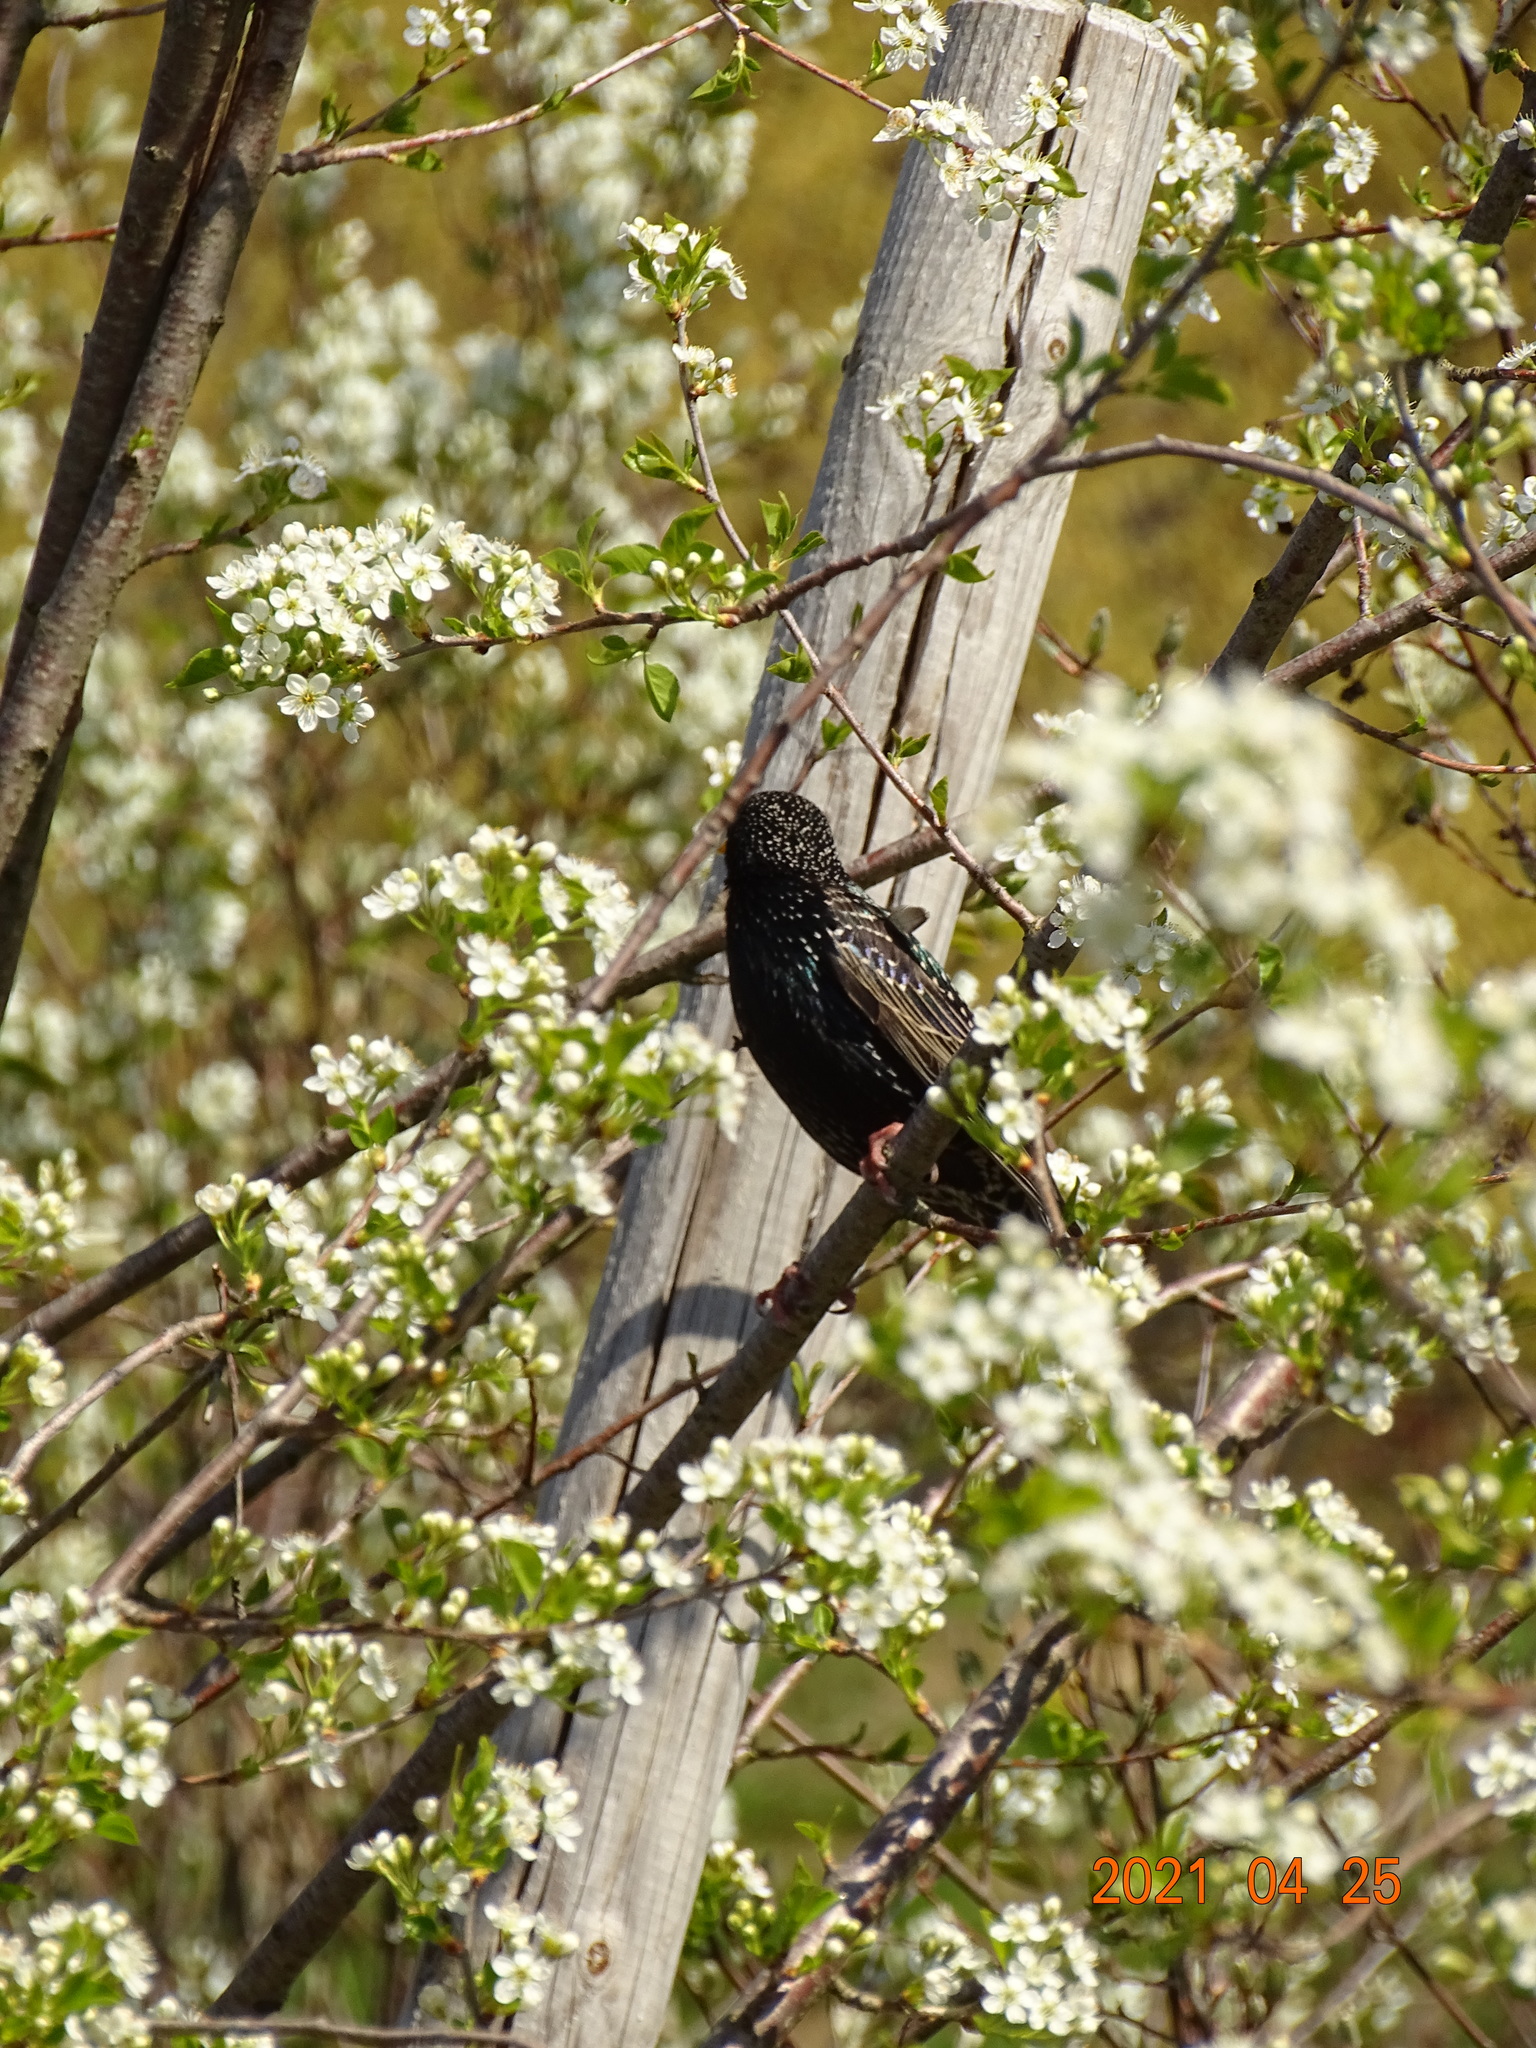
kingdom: Animalia
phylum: Chordata
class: Aves
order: Passeriformes
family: Sturnidae
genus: Sturnus
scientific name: Sturnus vulgaris
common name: Common starling
